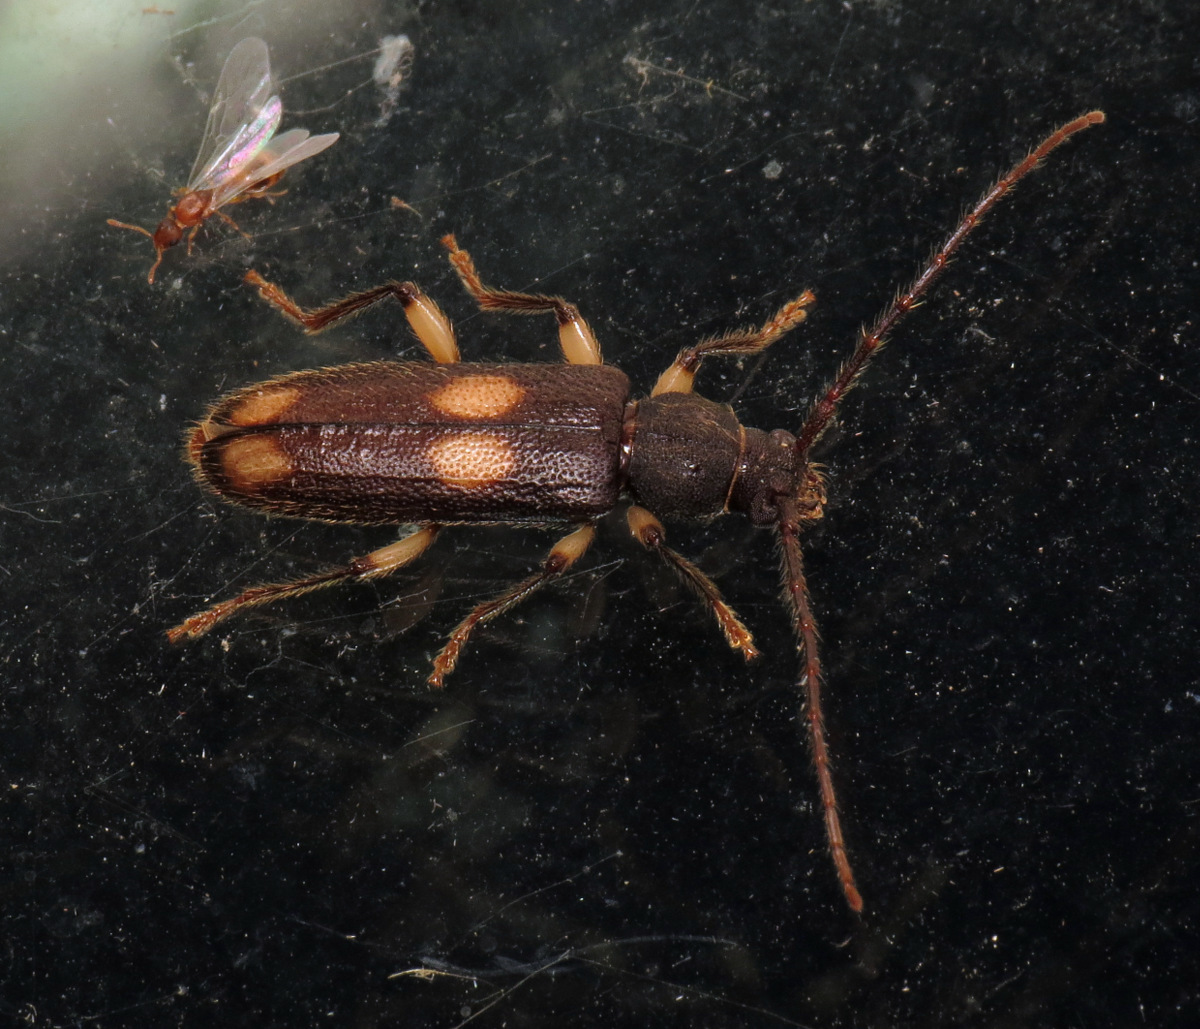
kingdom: Animalia
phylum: Arthropoda
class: Insecta
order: Coleoptera
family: Cerambycidae
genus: Tylonotus
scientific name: Tylonotus bimaculatus
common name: Ash and privet borer
